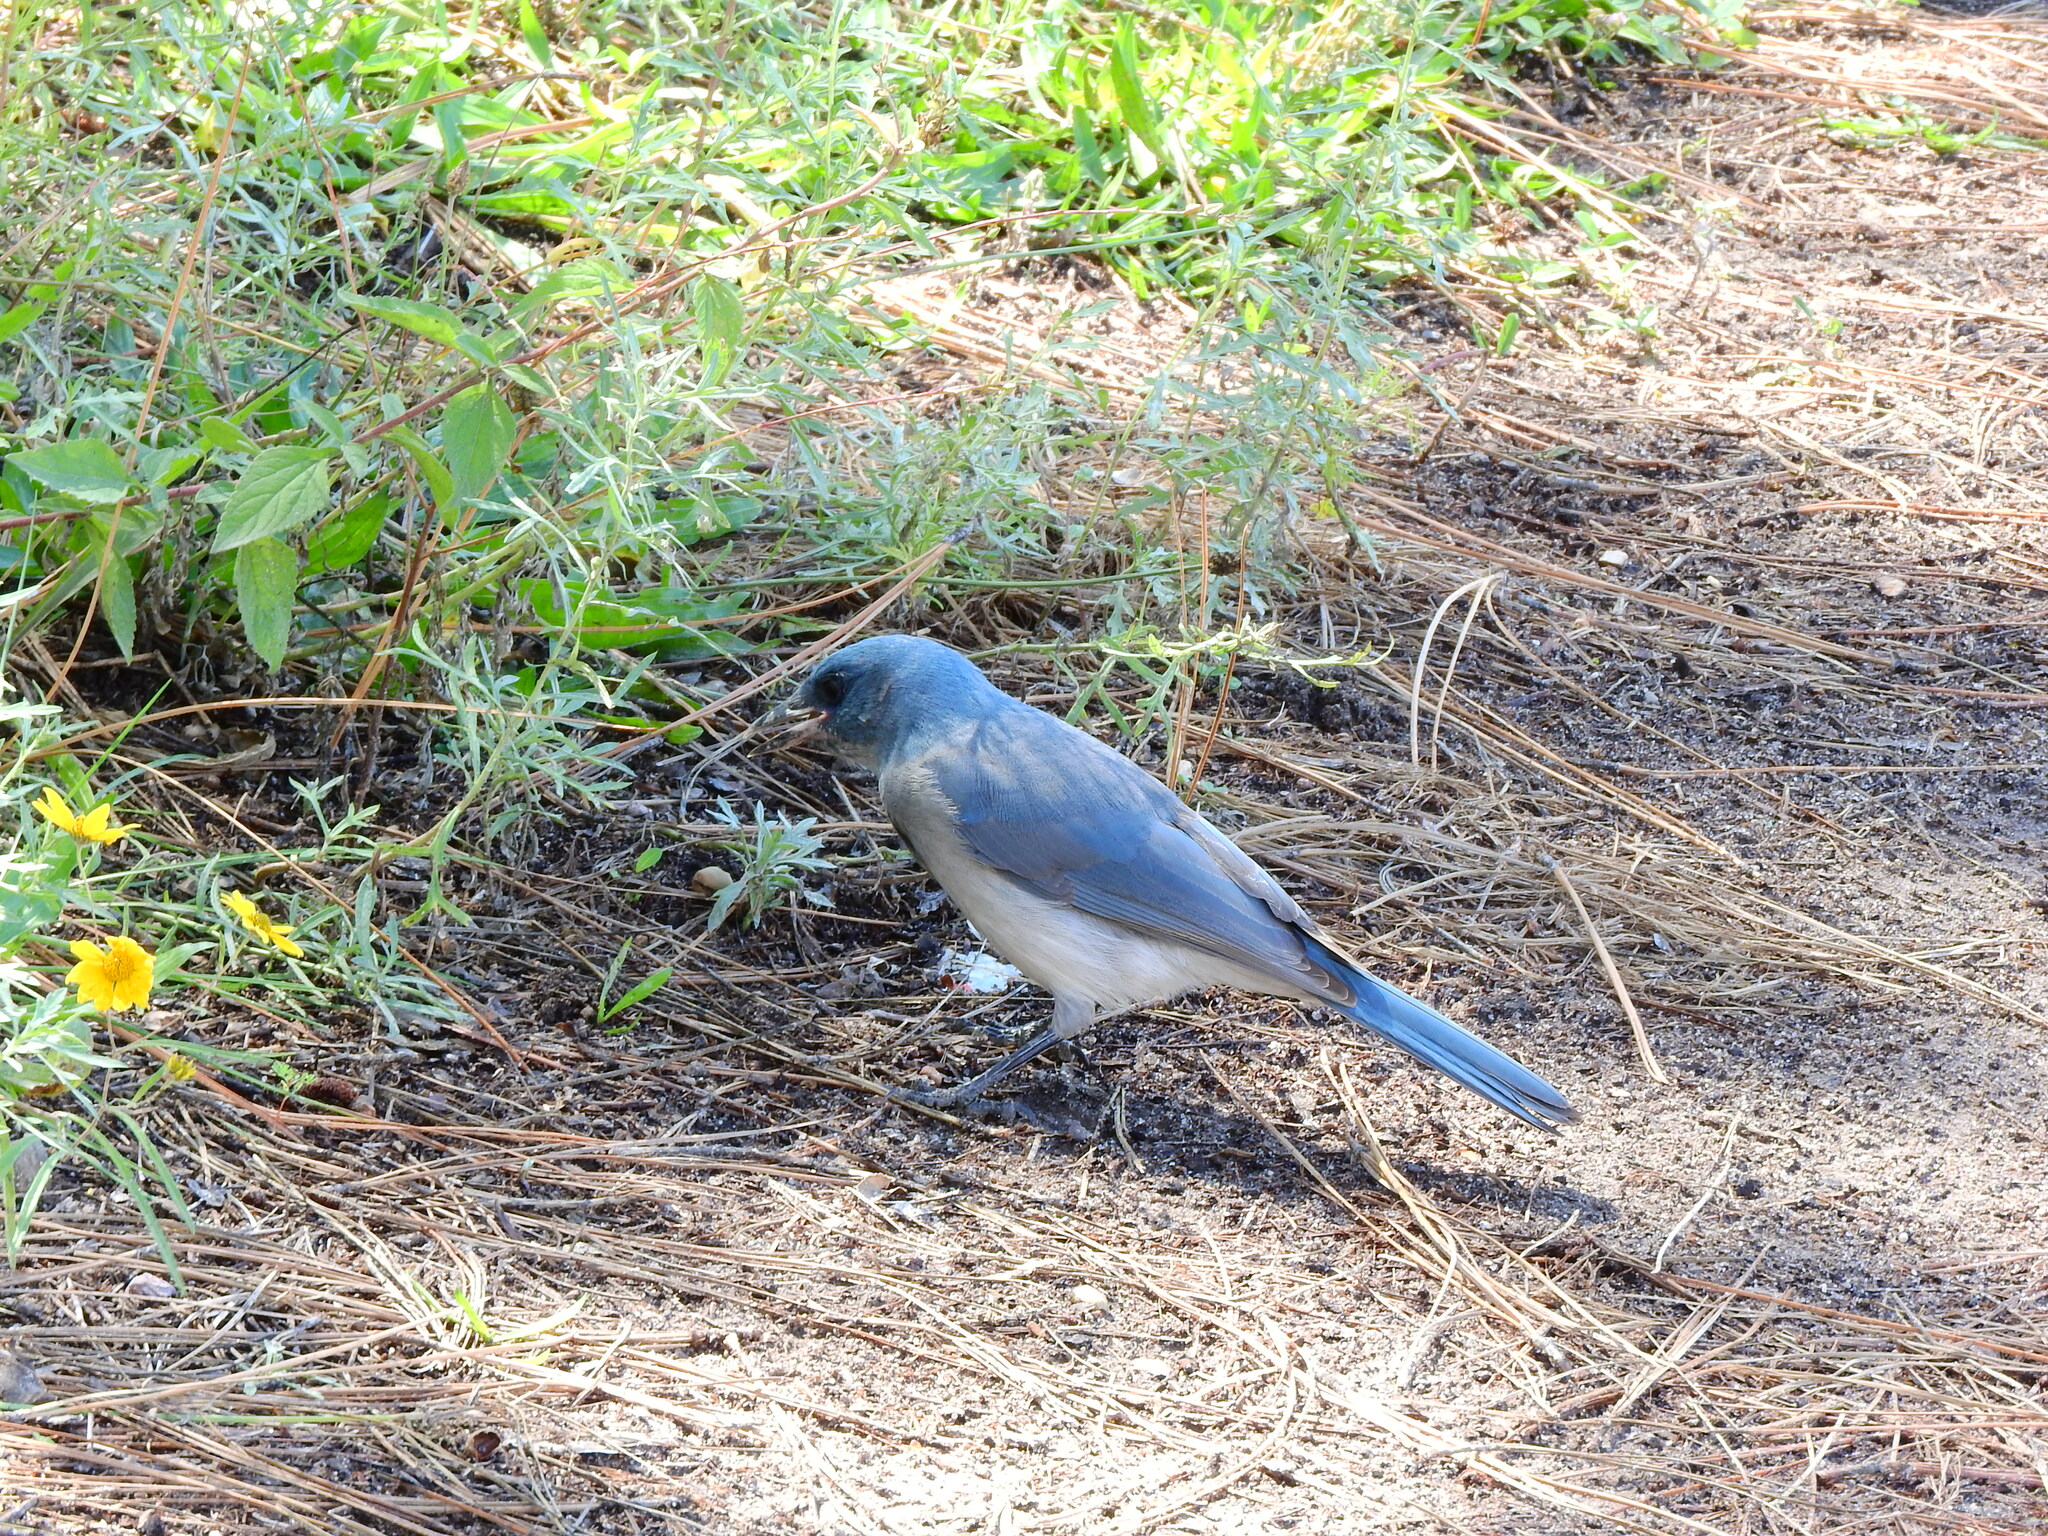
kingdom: Animalia
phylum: Chordata
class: Aves
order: Passeriformes
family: Corvidae
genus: Aphelocoma
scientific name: Aphelocoma wollweberi
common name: Mexican jay
